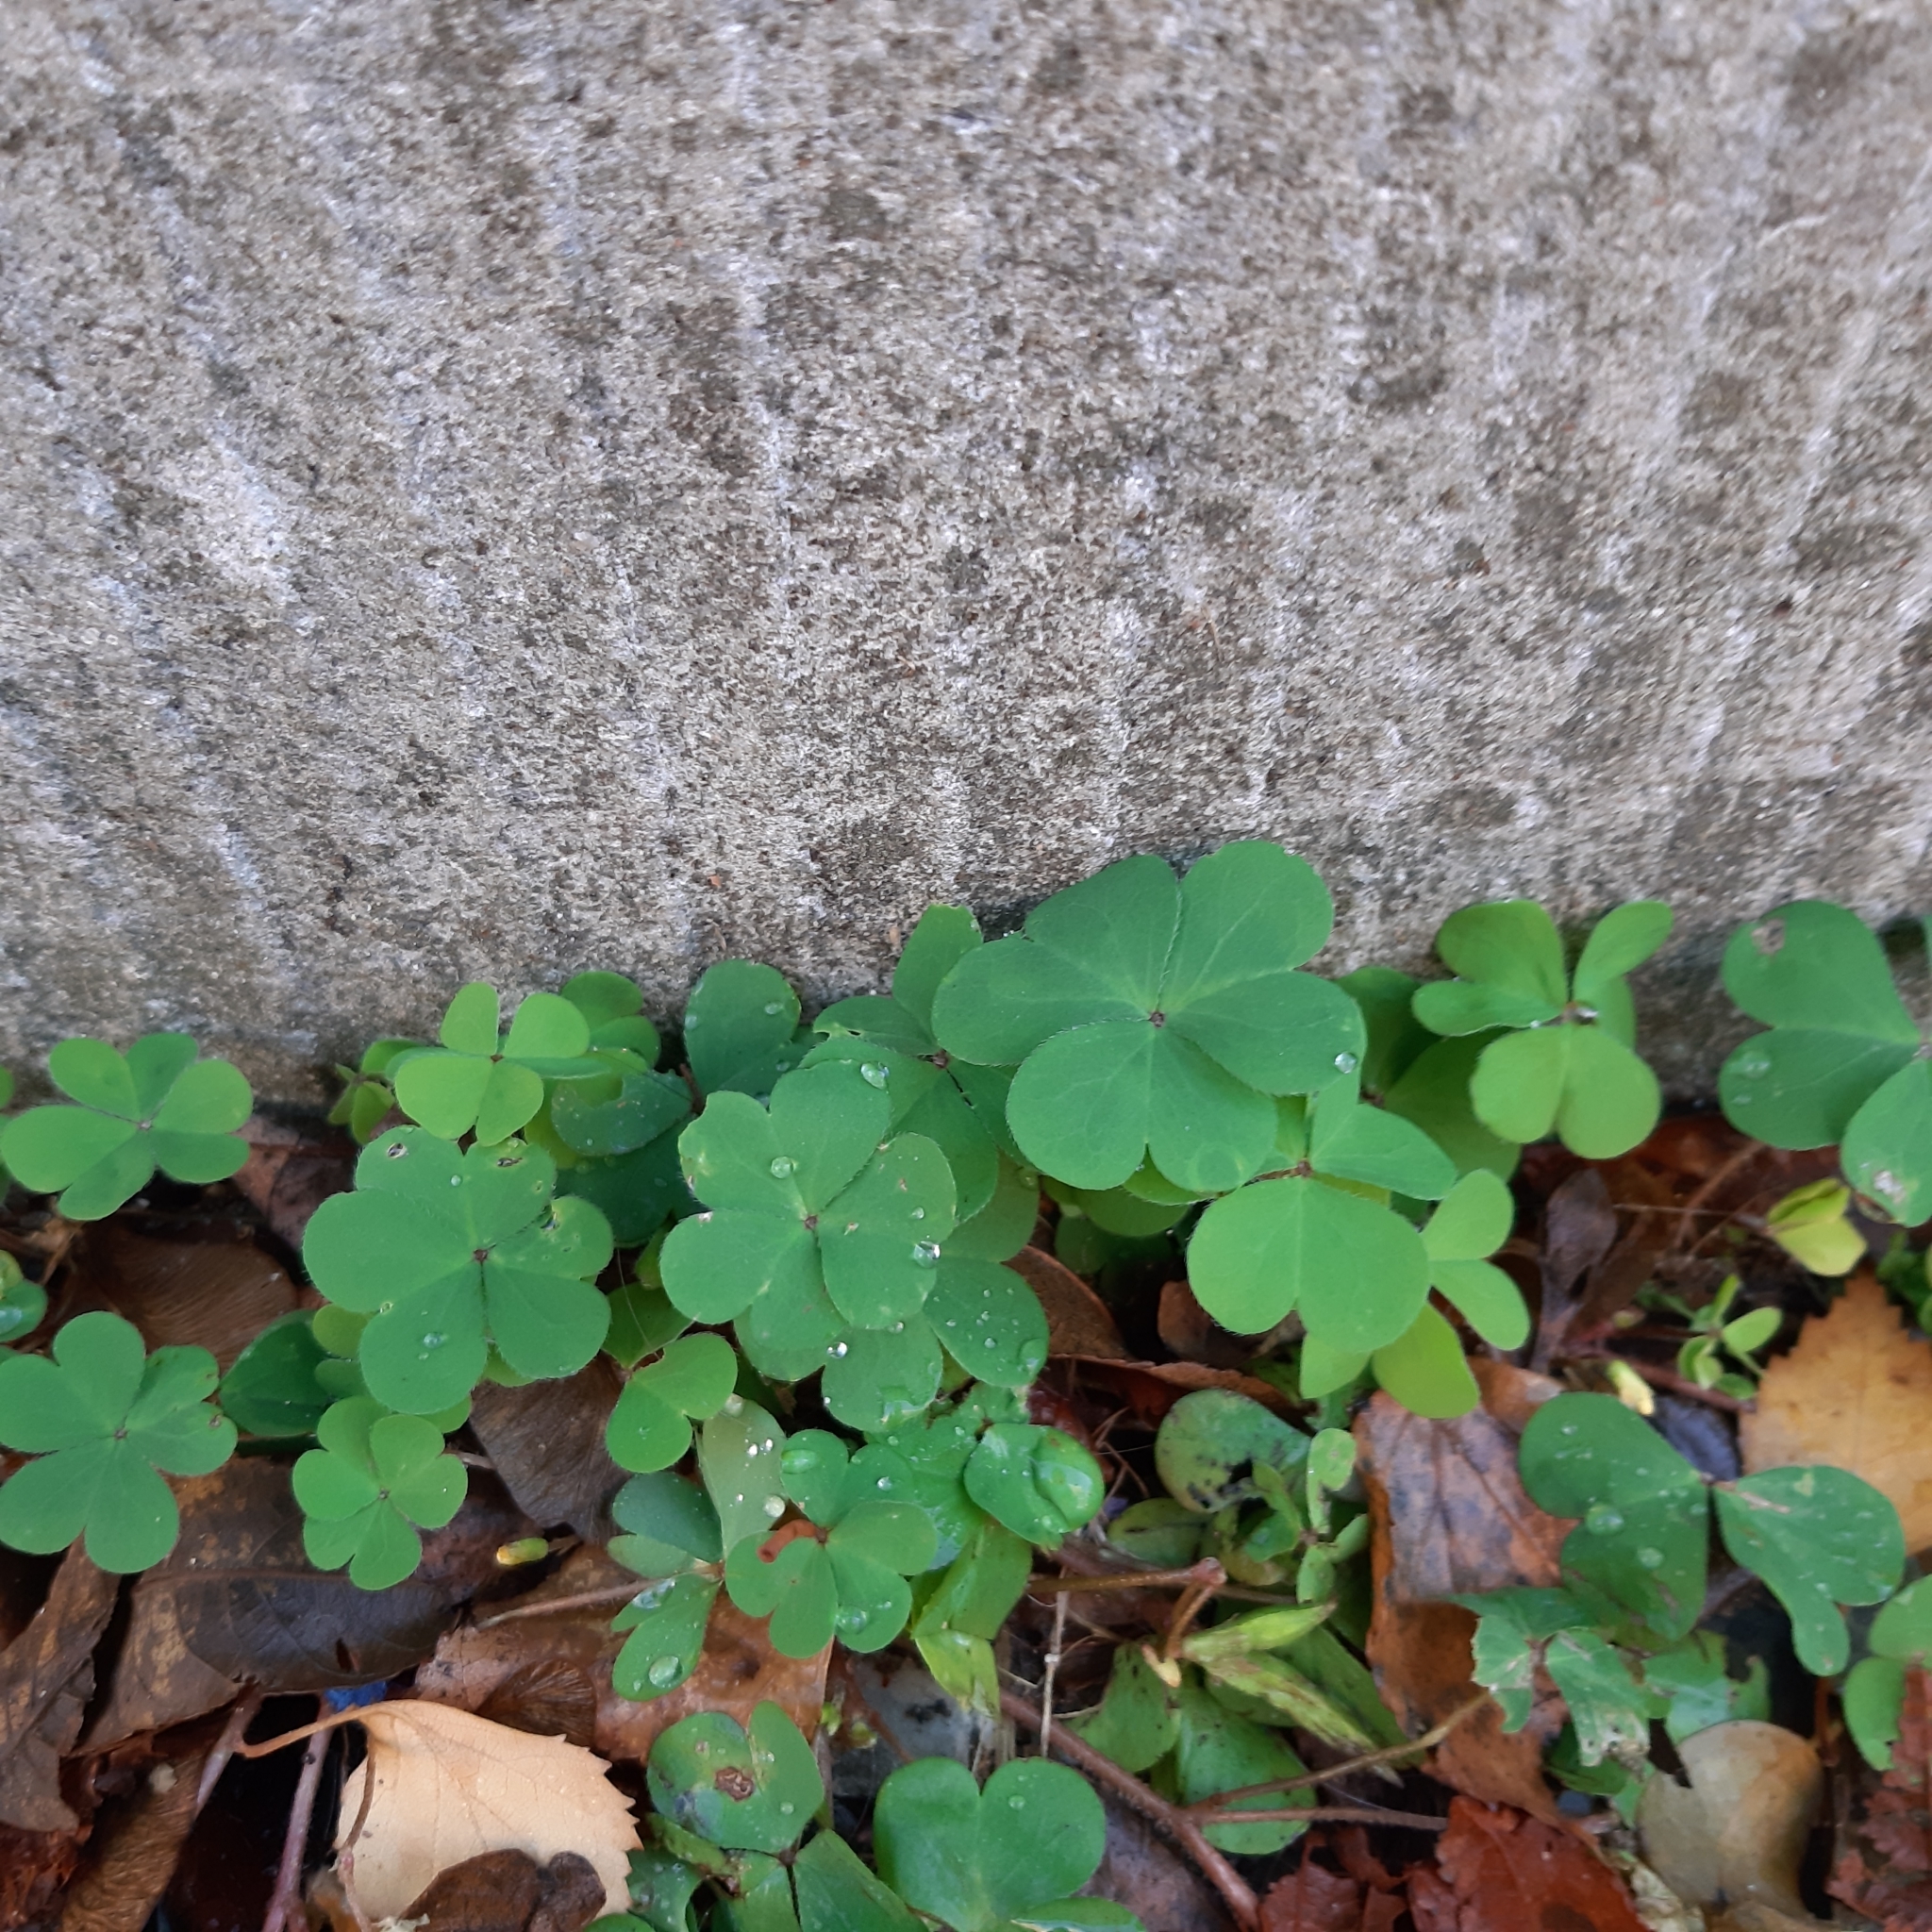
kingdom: Plantae
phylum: Tracheophyta
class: Magnoliopsida
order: Oxalidales
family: Oxalidaceae
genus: Oxalis
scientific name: Oxalis corniculata
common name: Procumbent yellow-sorrel
